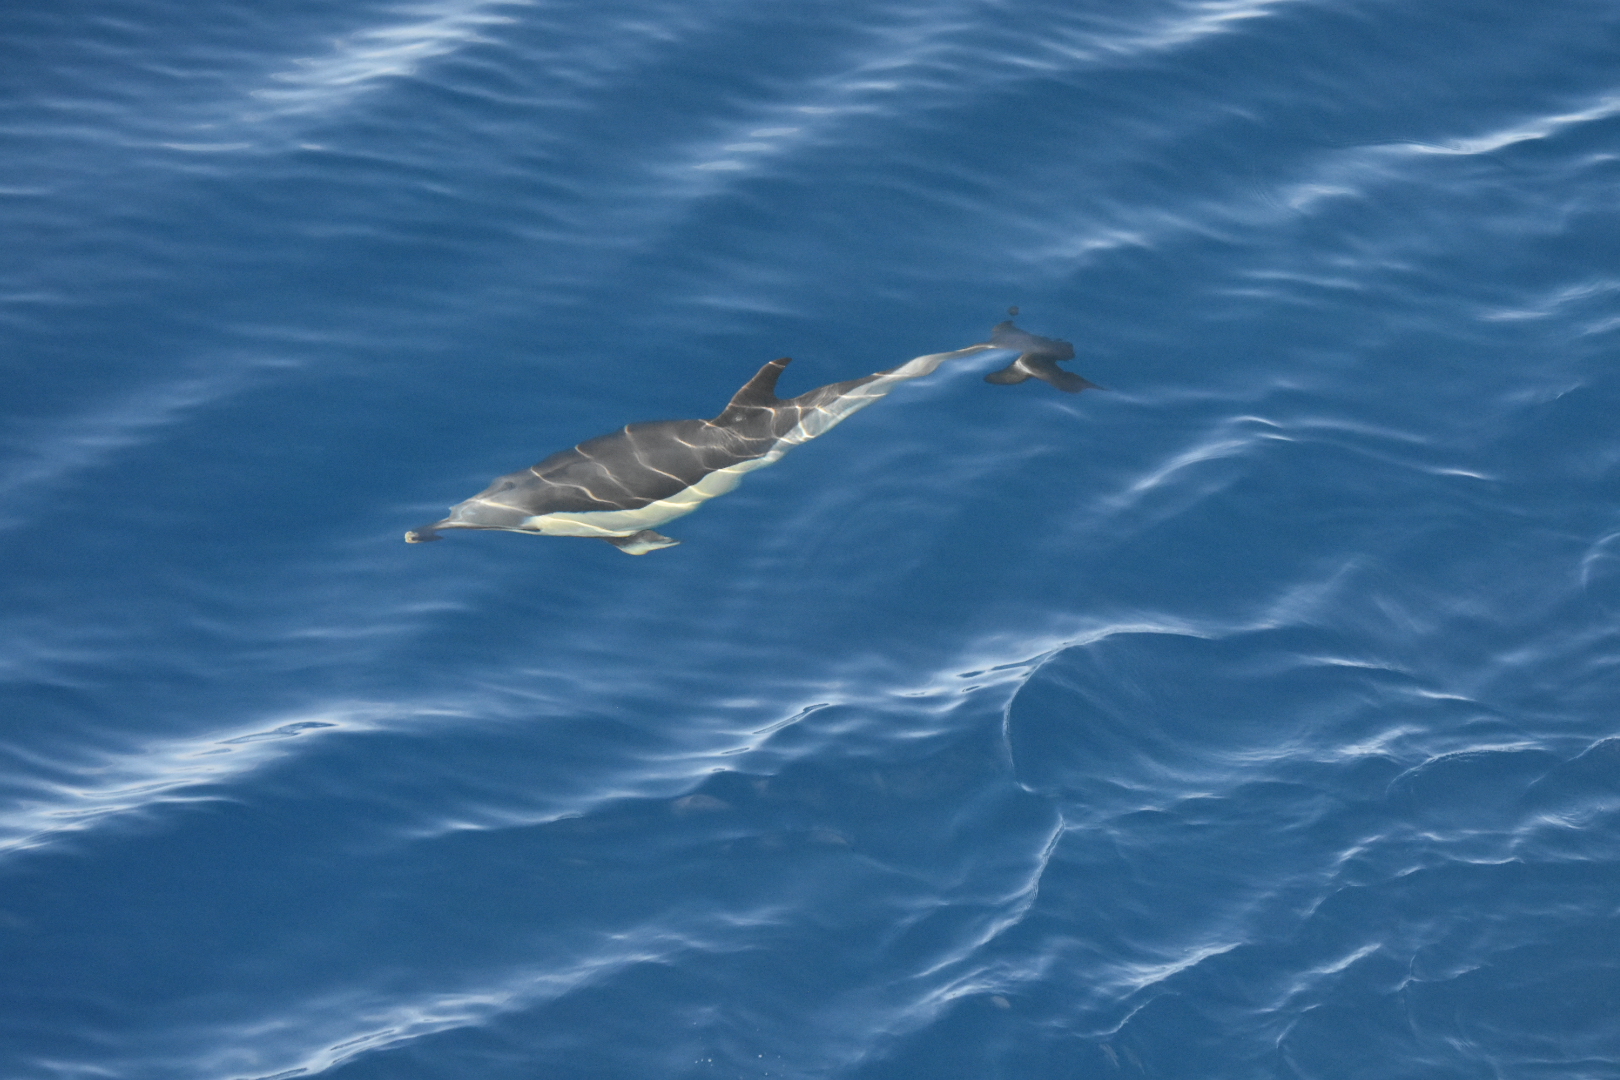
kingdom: Animalia
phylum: Chordata
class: Mammalia
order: Cetacea
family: Delphinidae
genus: Delphinus
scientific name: Delphinus delphis
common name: Common dolphin
